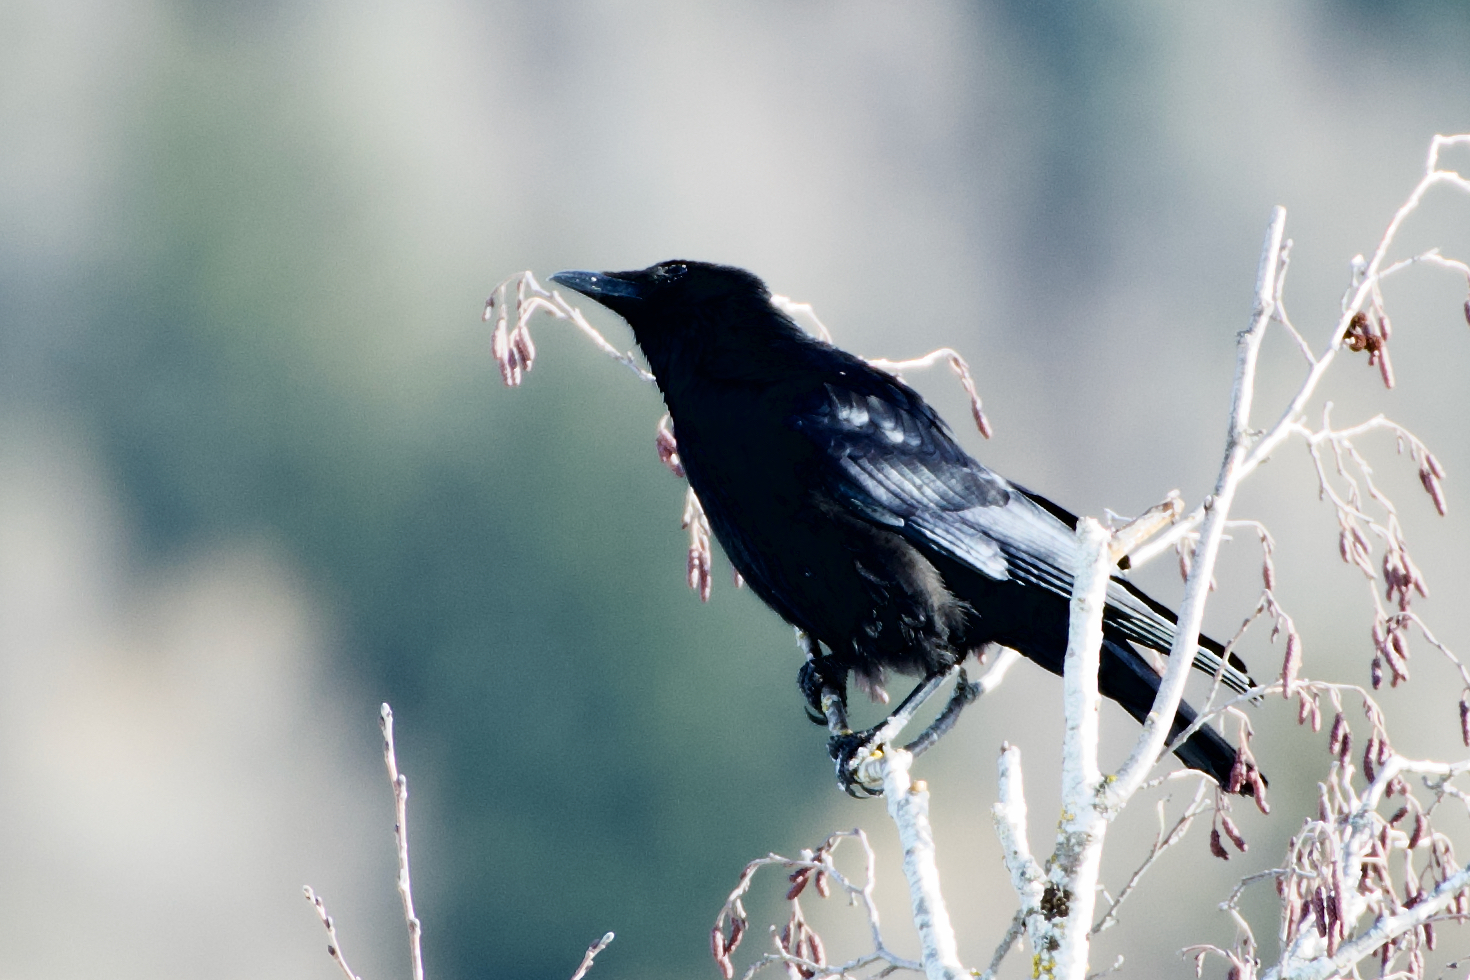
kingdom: Animalia
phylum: Chordata
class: Aves
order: Passeriformes
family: Corvidae
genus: Corvus
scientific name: Corvus corone
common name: Carrion crow
